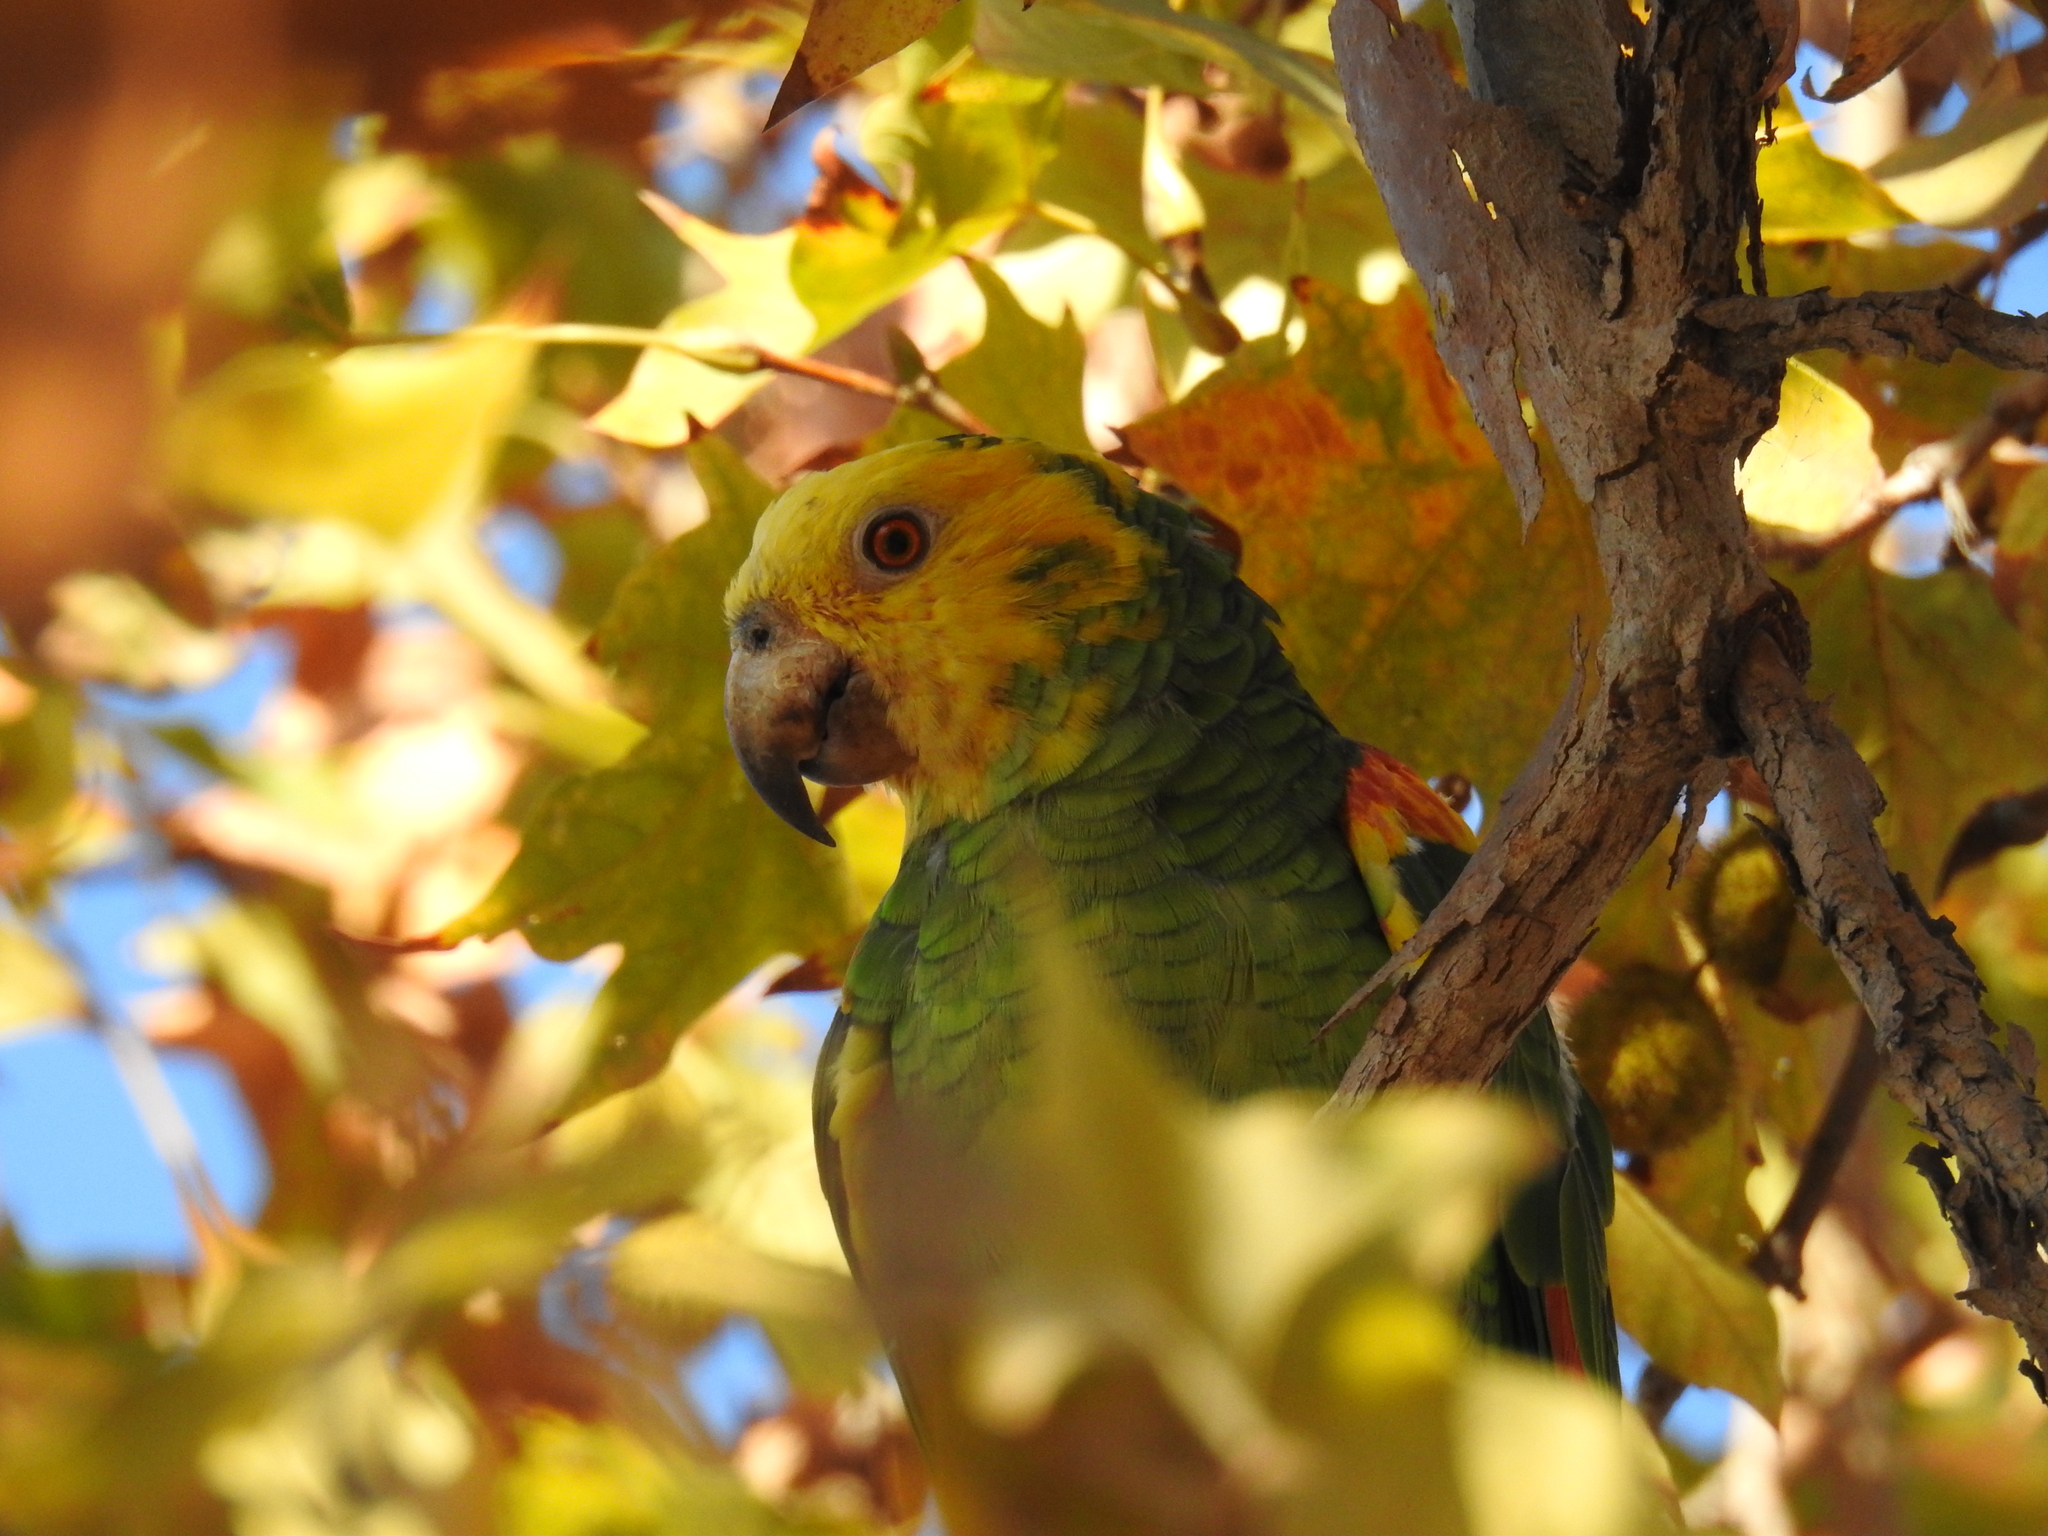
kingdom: Animalia
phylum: Chordata
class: Aves
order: Psittaciformes
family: Psittacidae
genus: Amazona
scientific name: Amazona oratrix
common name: Yellow-headed amazon
